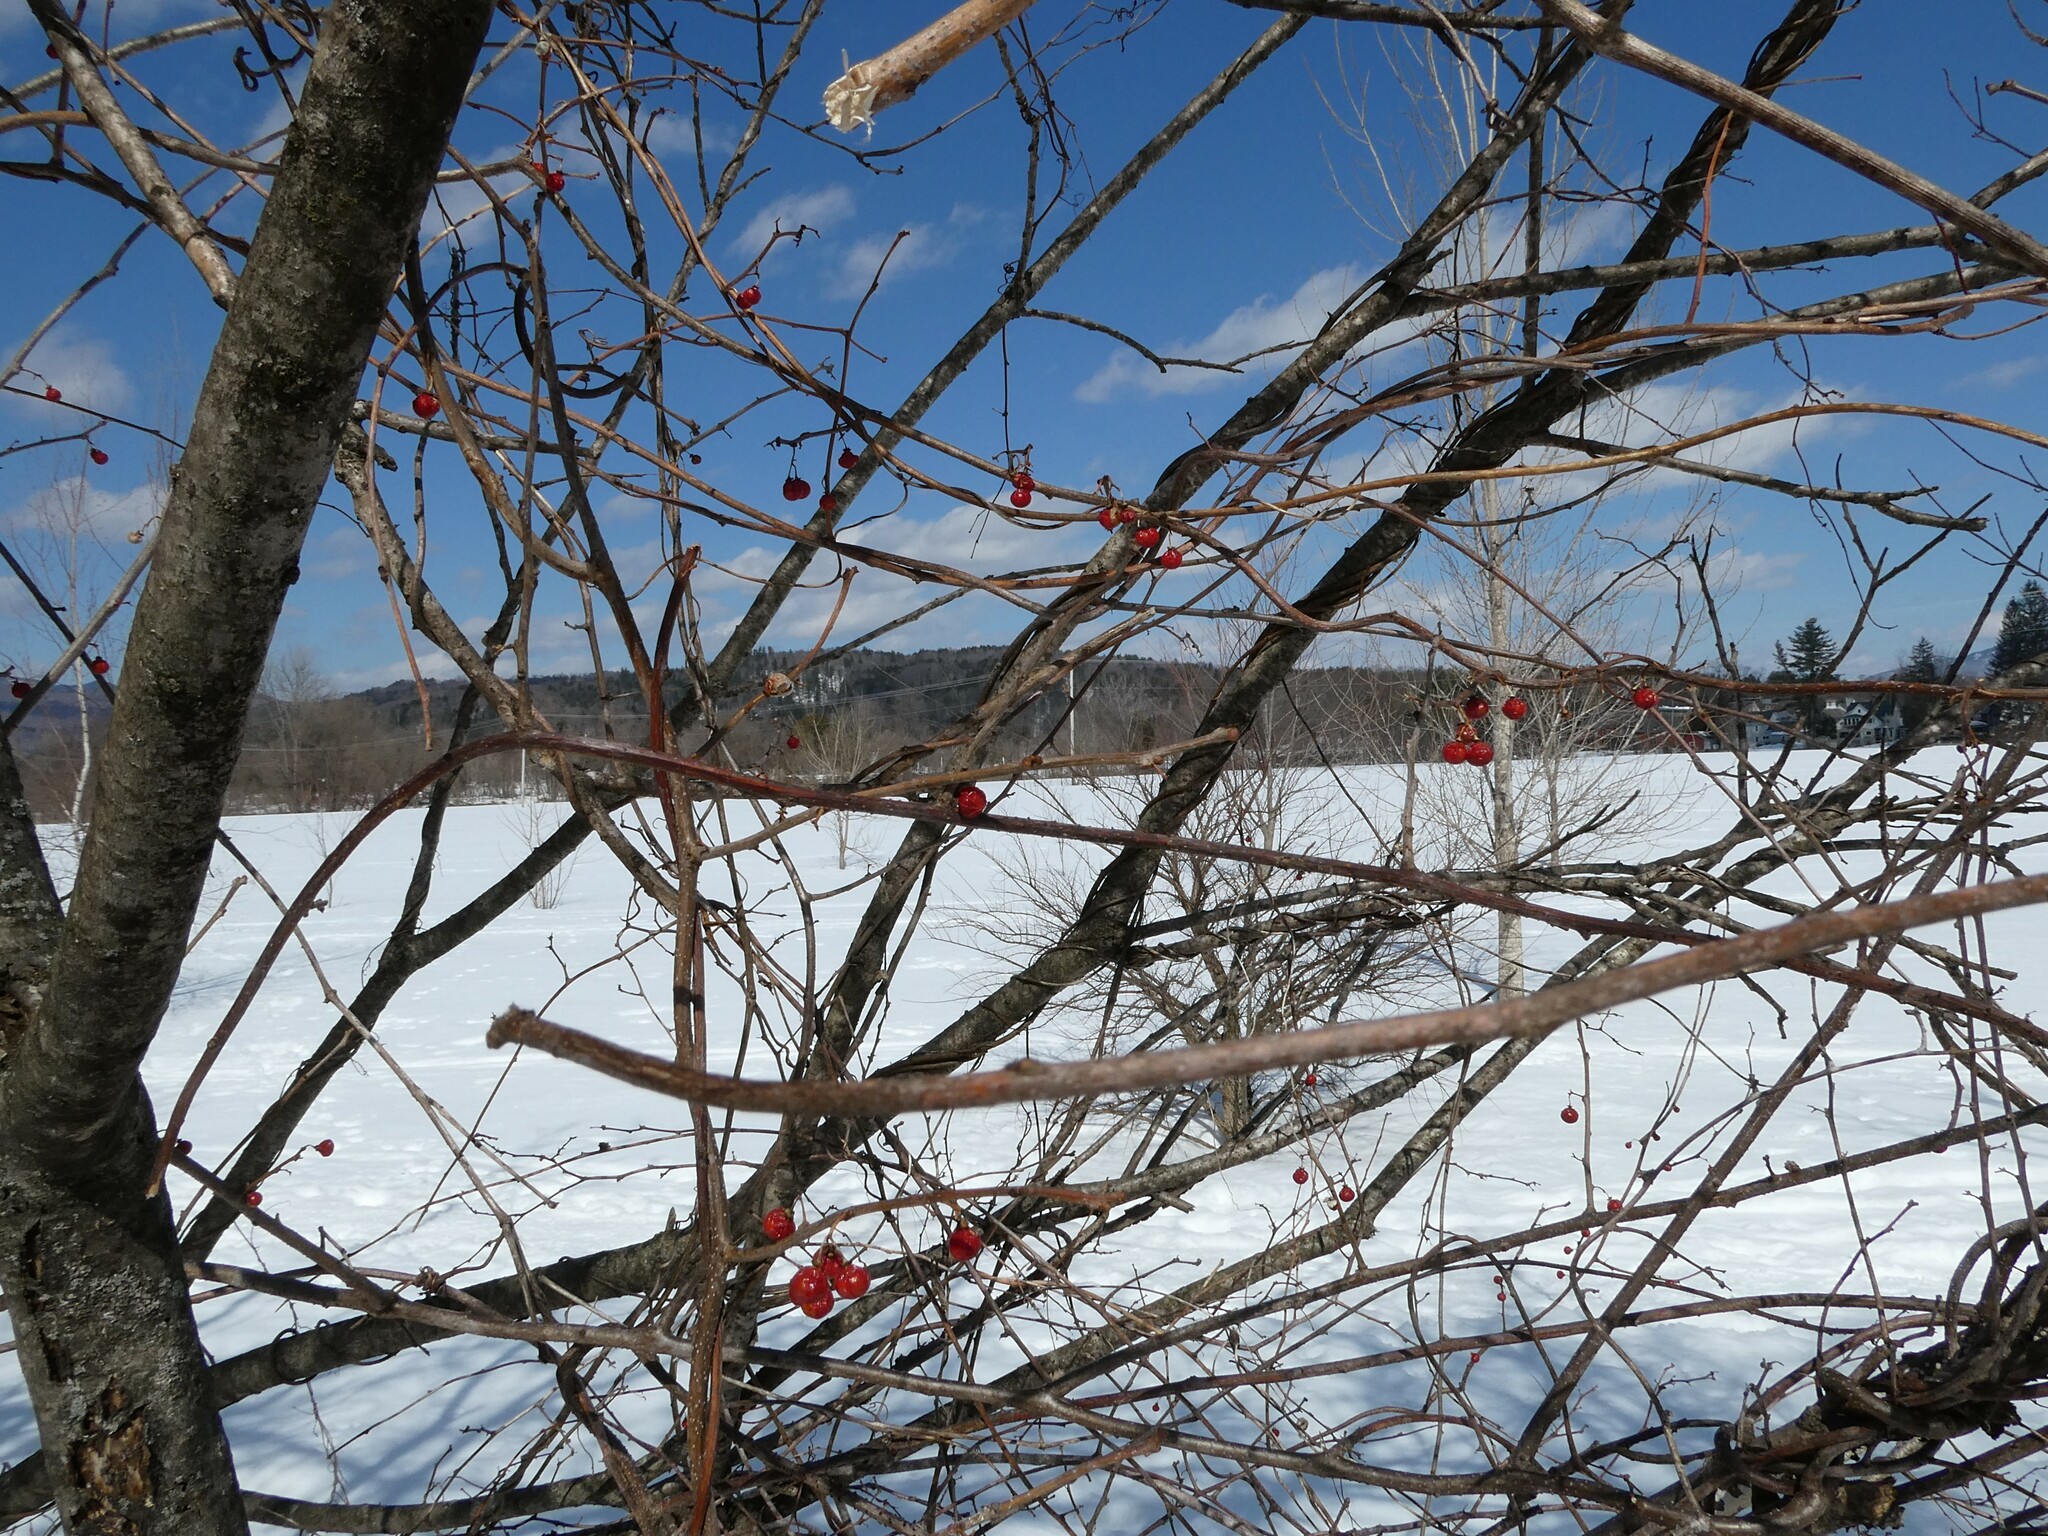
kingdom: Plantae
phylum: Tracheophyta
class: Magnoliopsida
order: Celastrales
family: Celastraceae
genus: Celastrus
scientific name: Celastrus orbiculatus
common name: Oriental bittersweet
